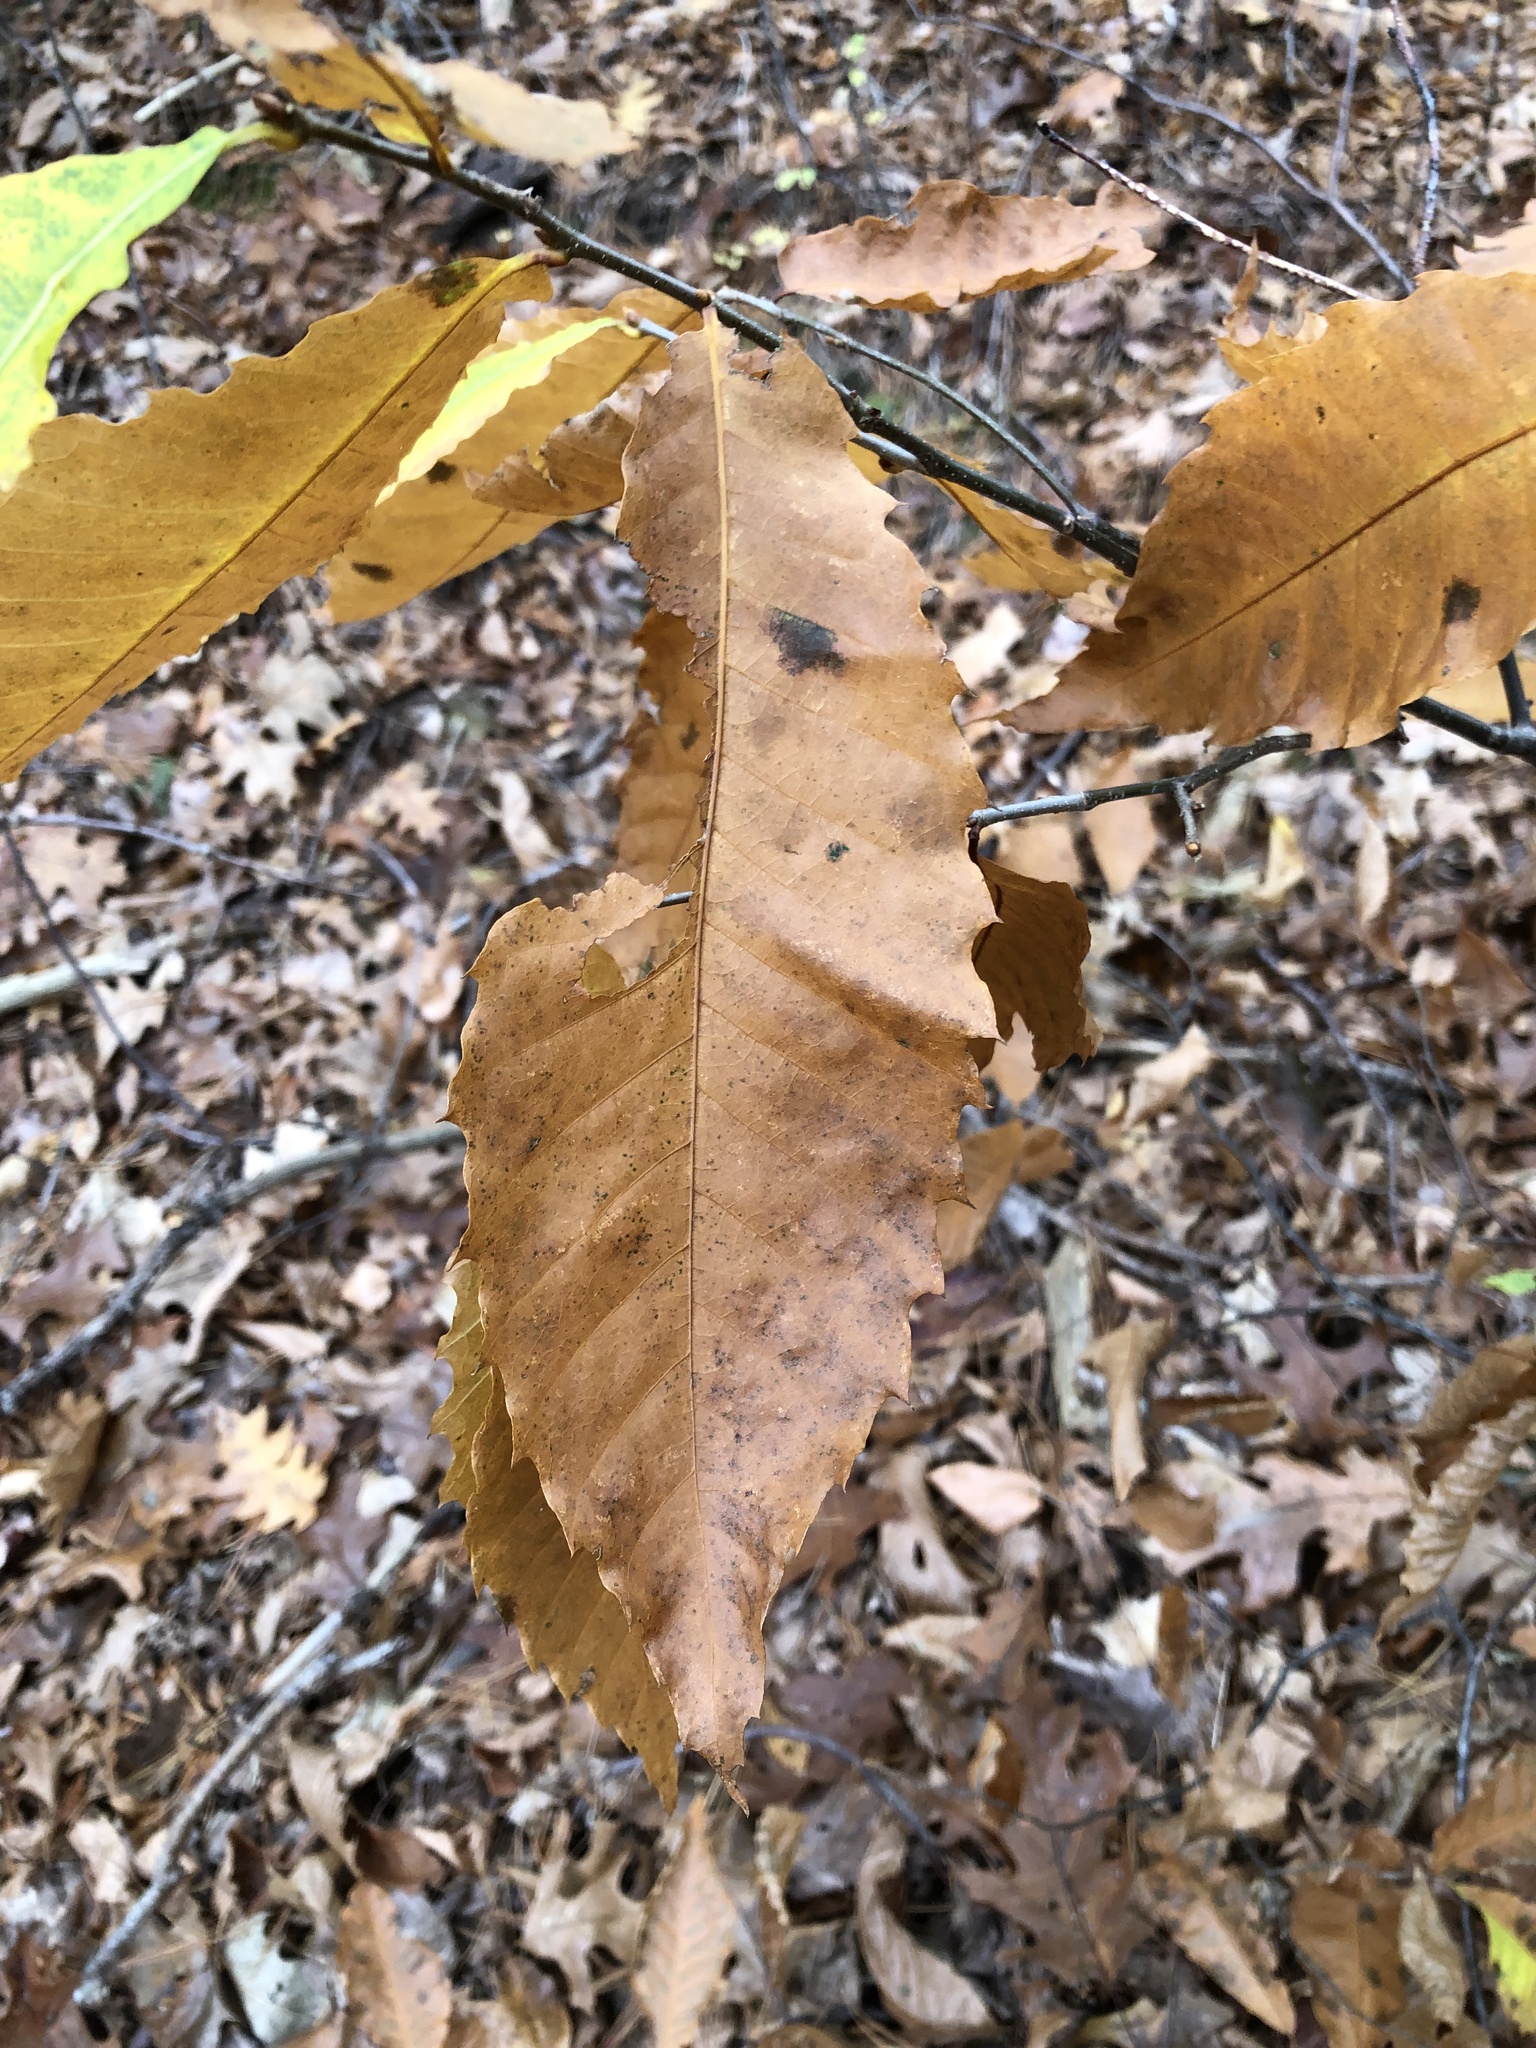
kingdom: Plantae
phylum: Tracheophyta
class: Magnoliopsida
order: Fagales
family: Fagaceae
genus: Castanea
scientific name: Castanea dentata
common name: American chestnut
